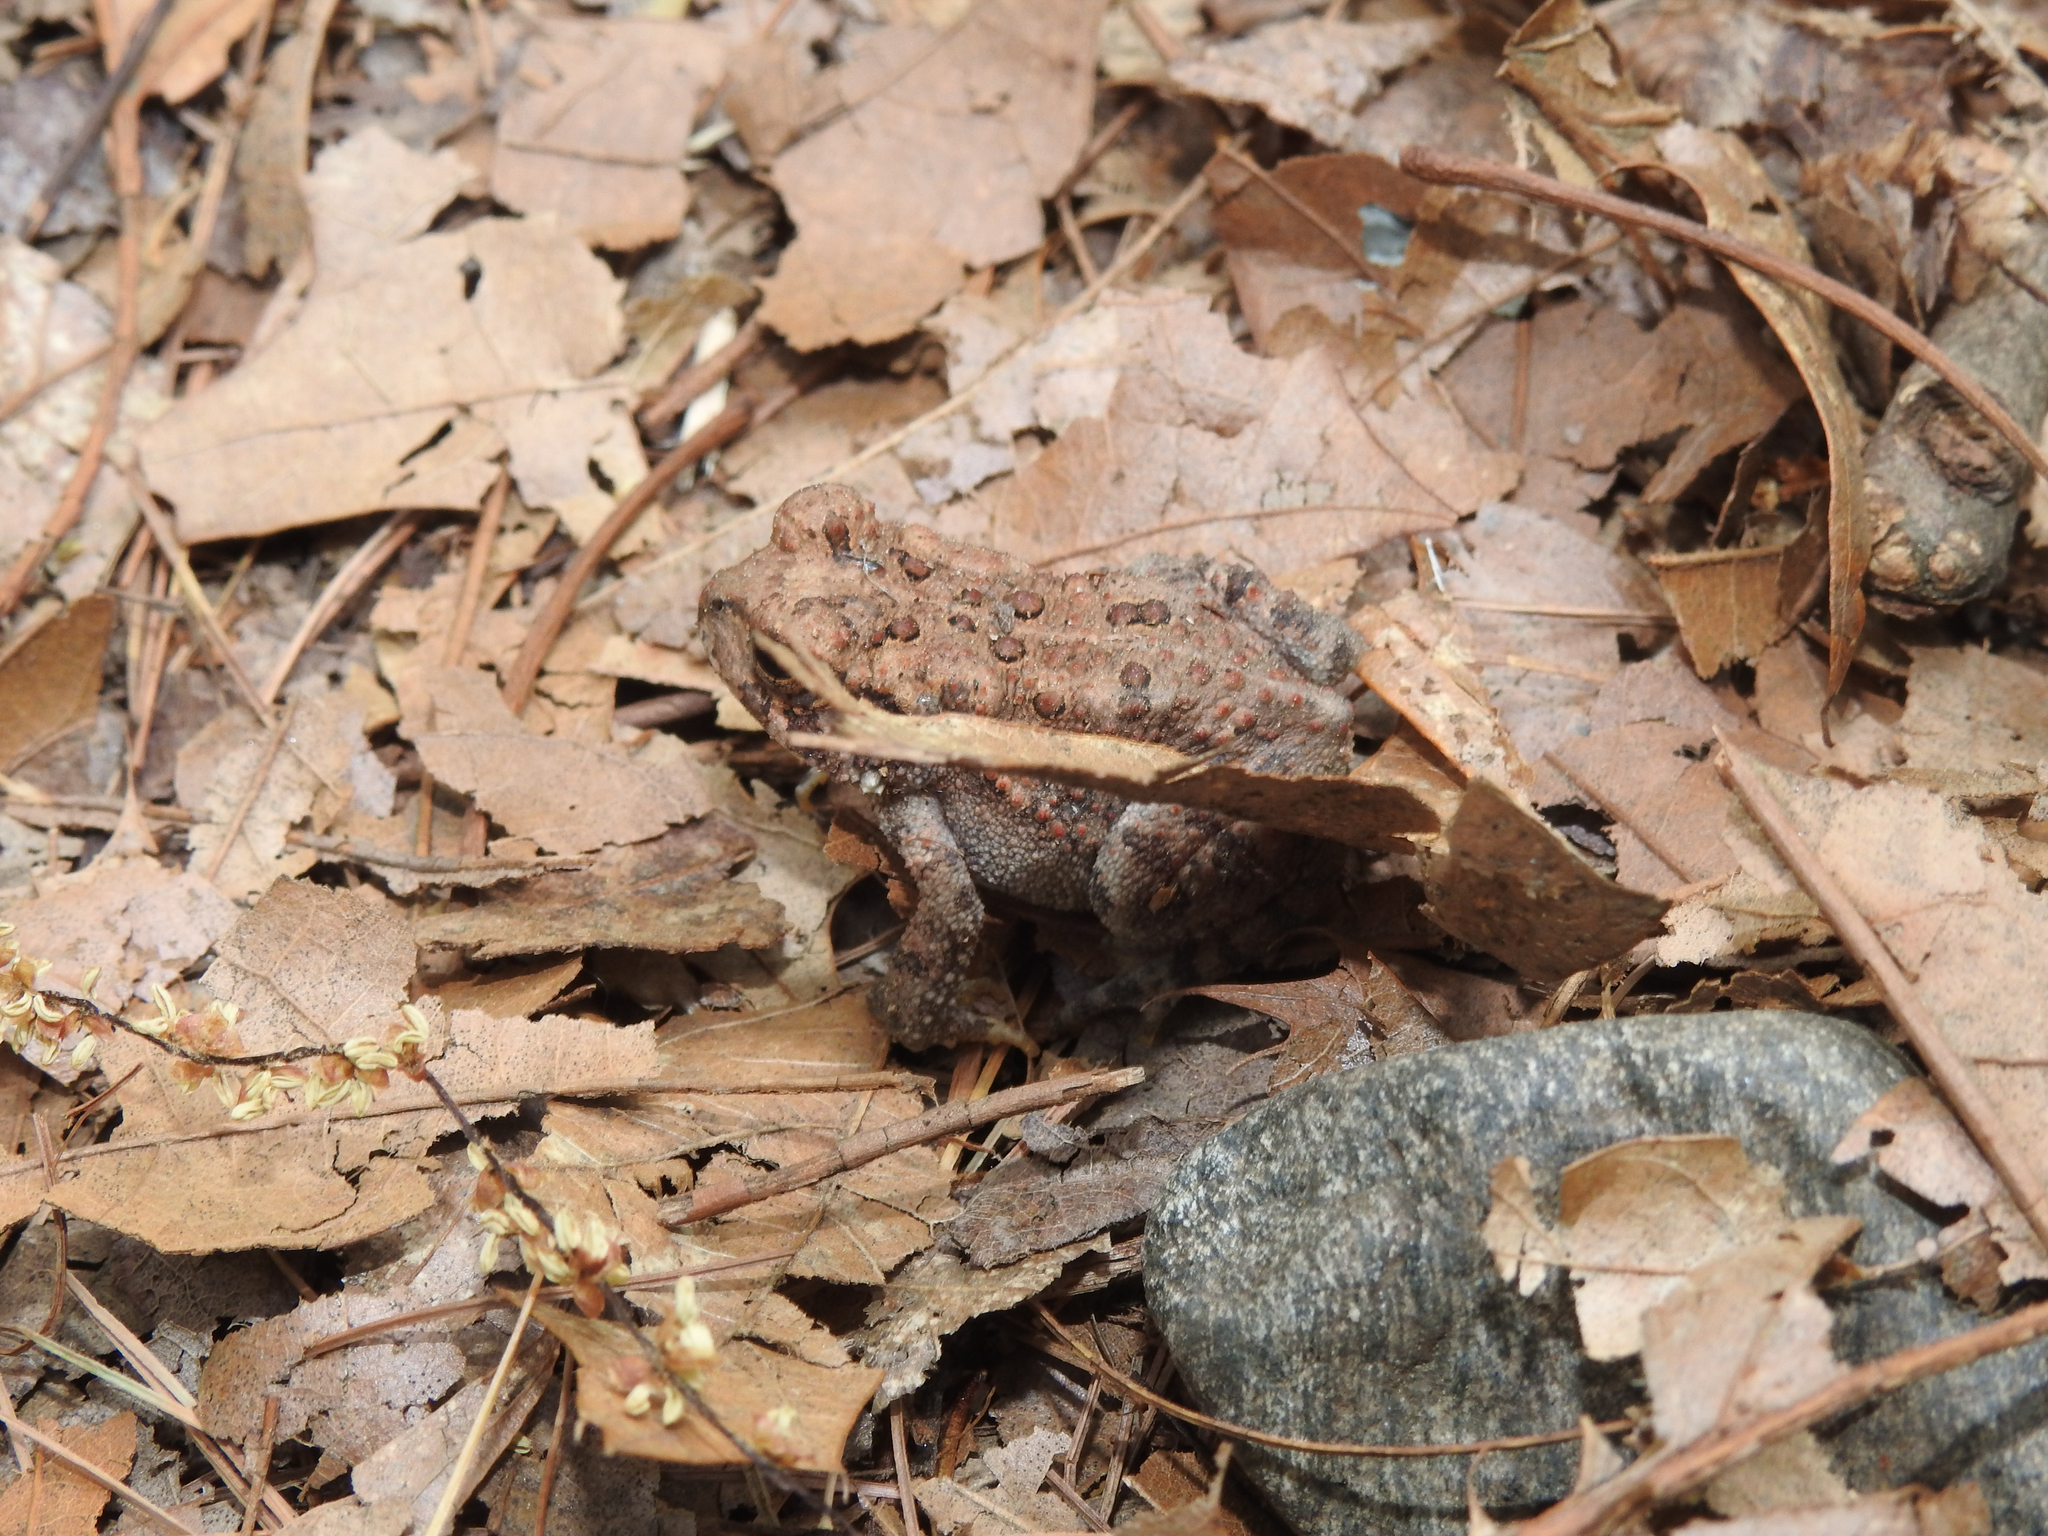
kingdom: Animalia
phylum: Chordata
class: Amphibia
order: Anura
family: Bufonidae
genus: Anaxyrus
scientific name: Anaxyrus americanus
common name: American toad
